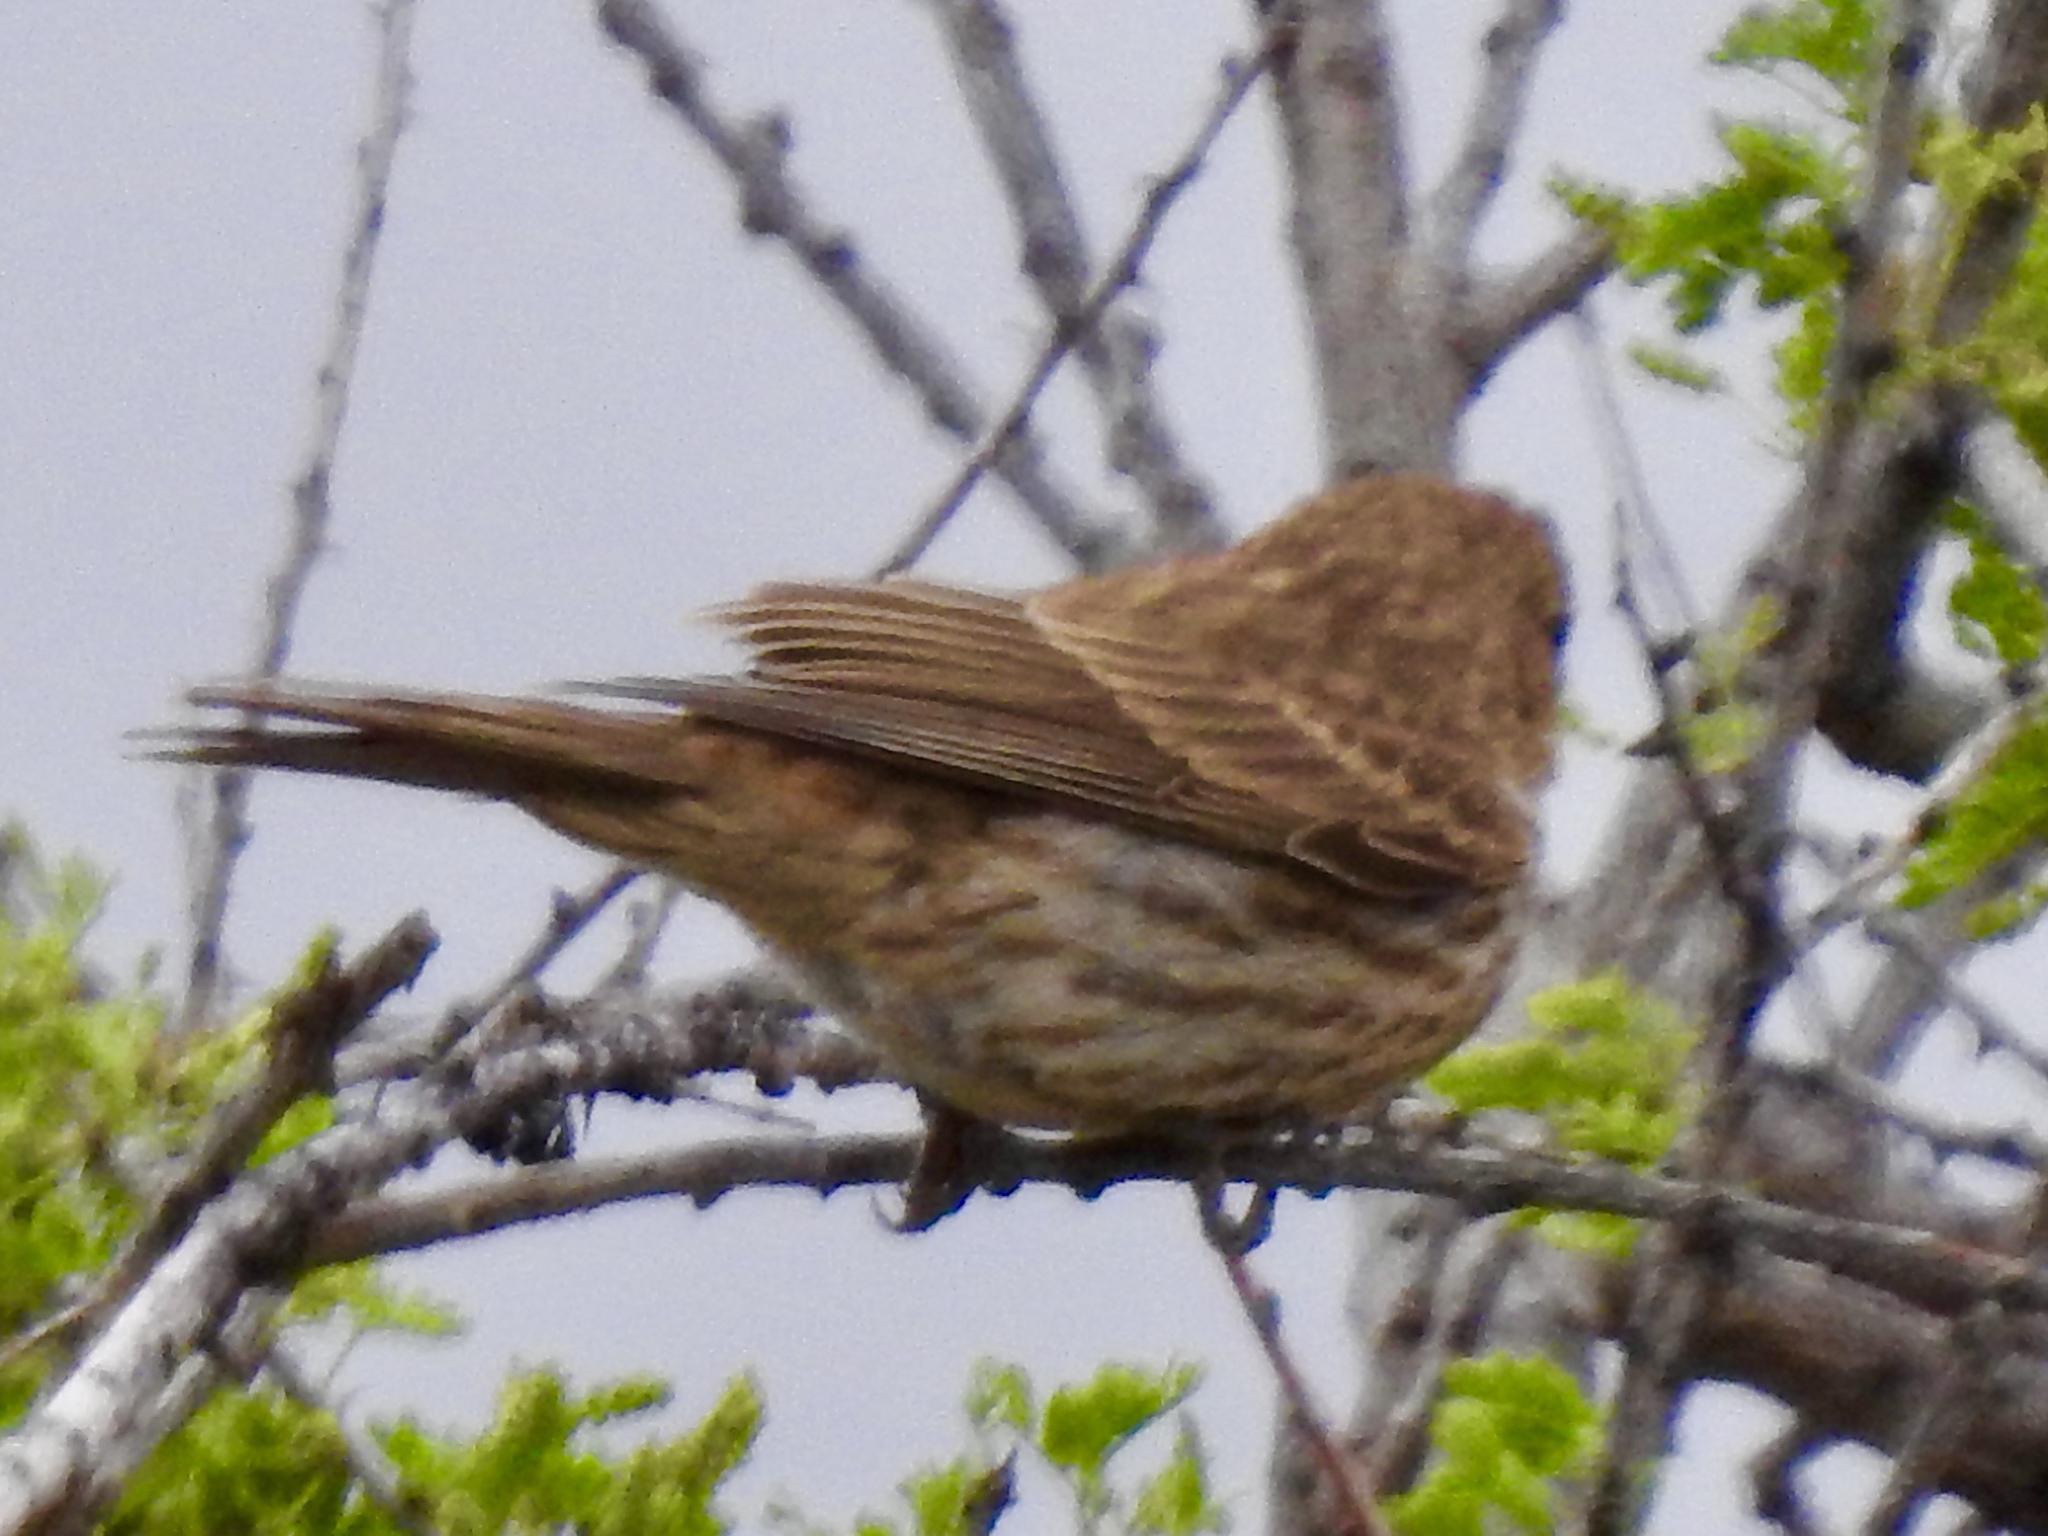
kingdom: Animalia
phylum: Chordata
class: Aves
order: Passeriformes
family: Fringillidae
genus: Haemorhous
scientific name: Haemorhous mexicanus
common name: House finch
